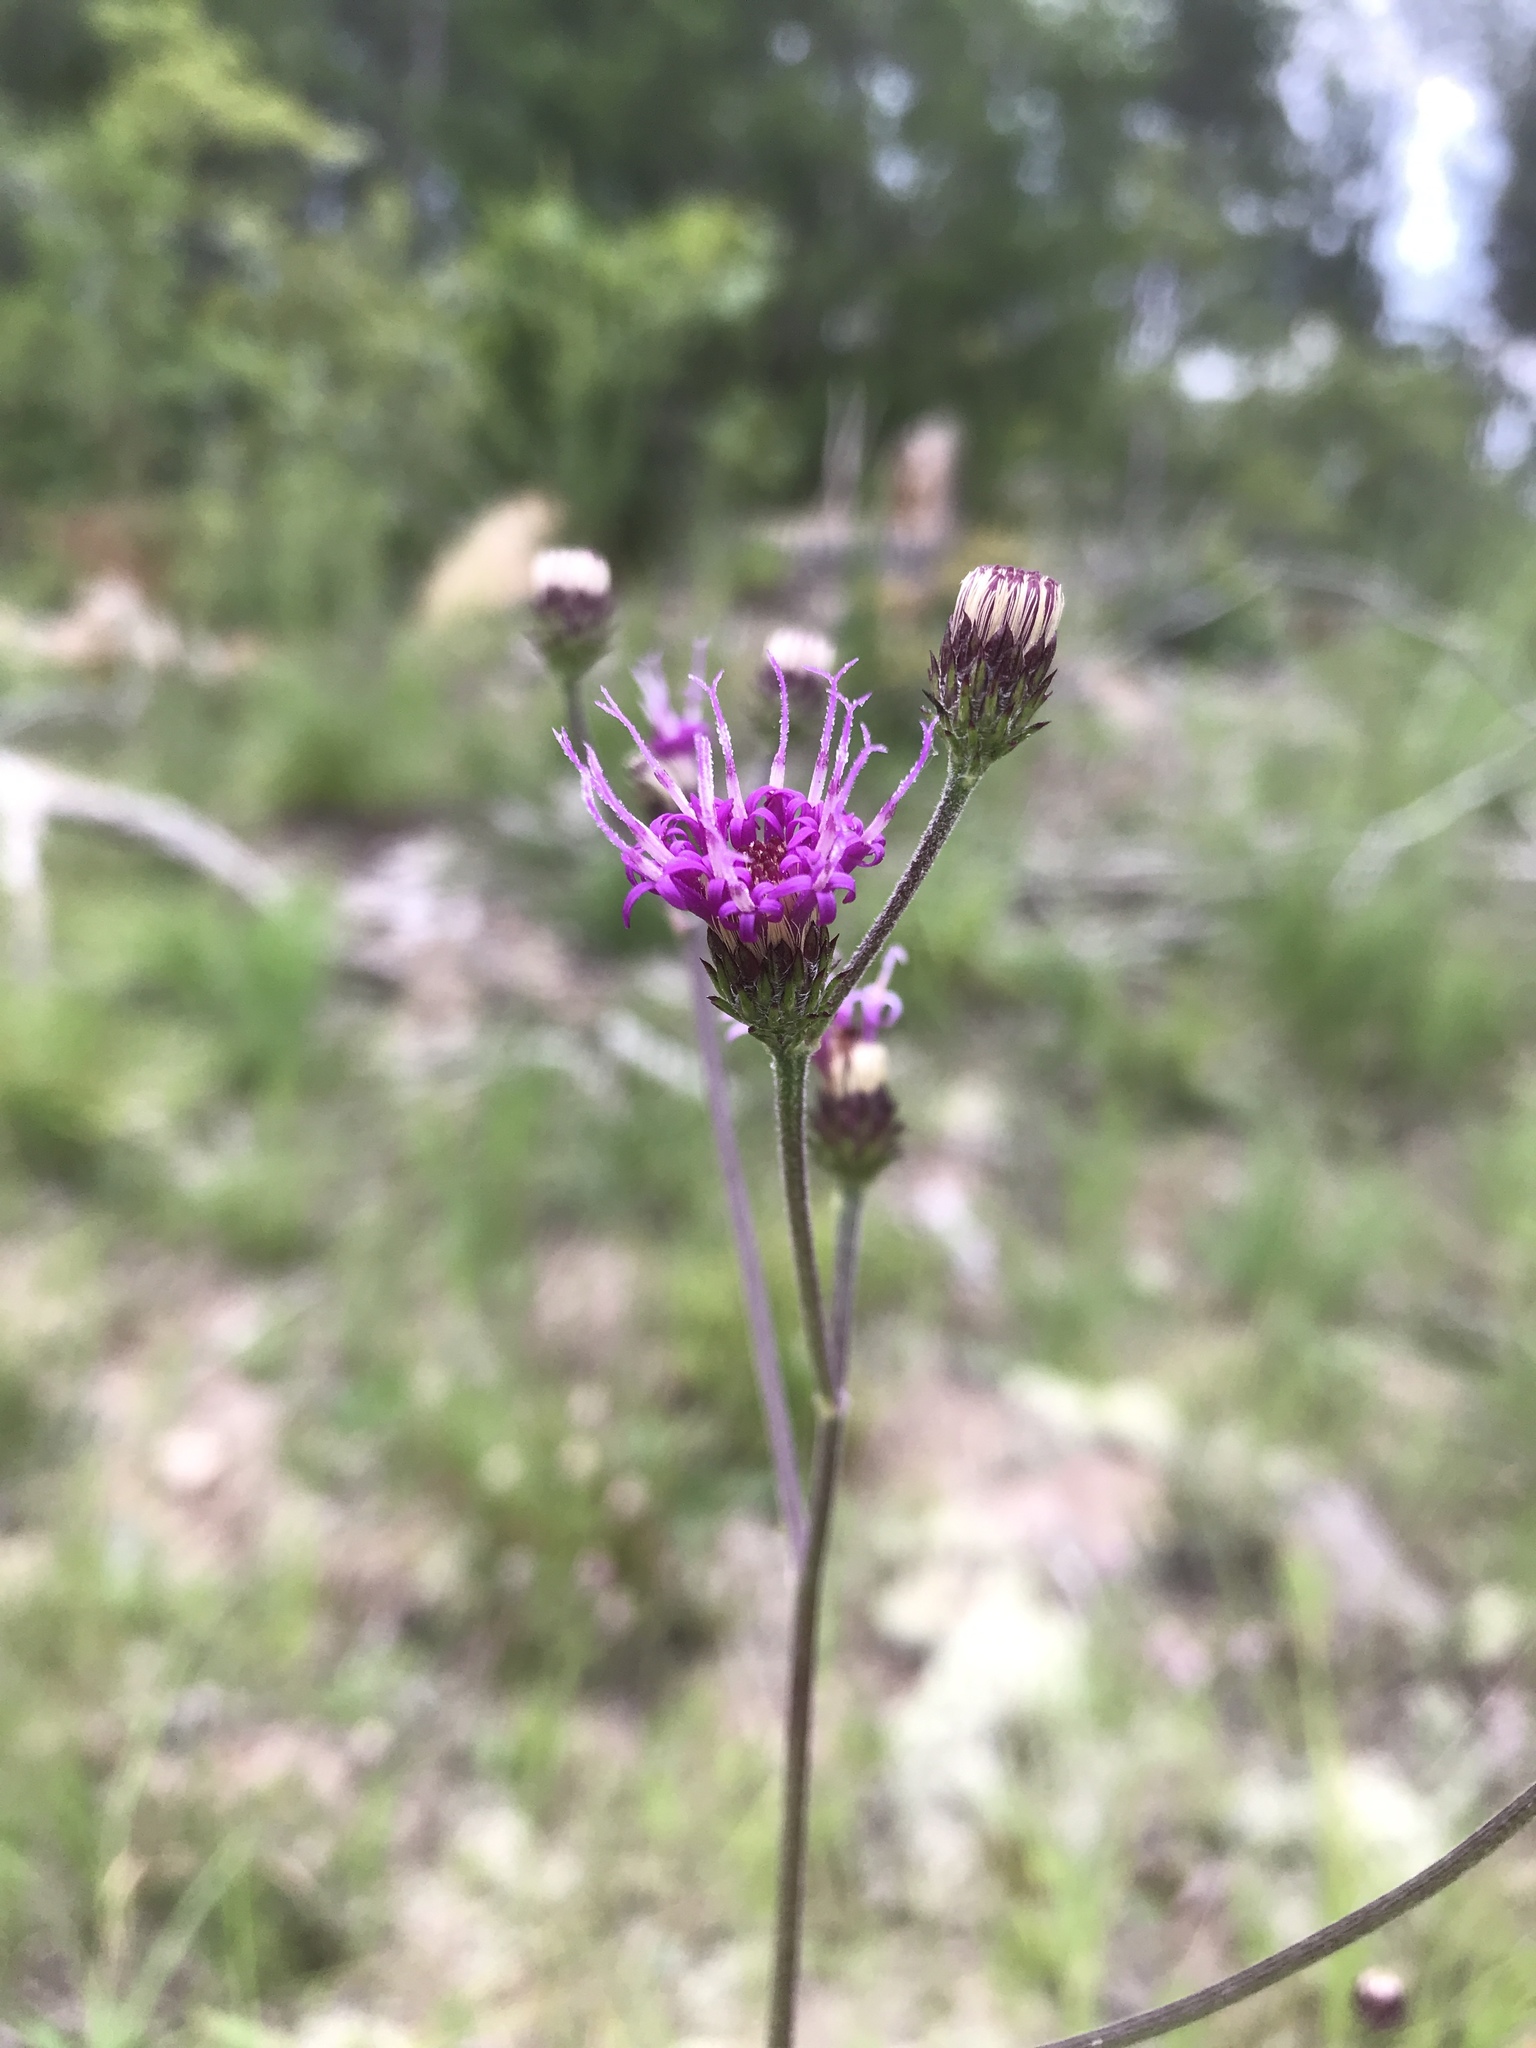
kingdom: Plantae
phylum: Tracheophyta
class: Magnoliopsida
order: Asterales
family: Asteraceae
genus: Vernonia
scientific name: Vernonia acaulis
